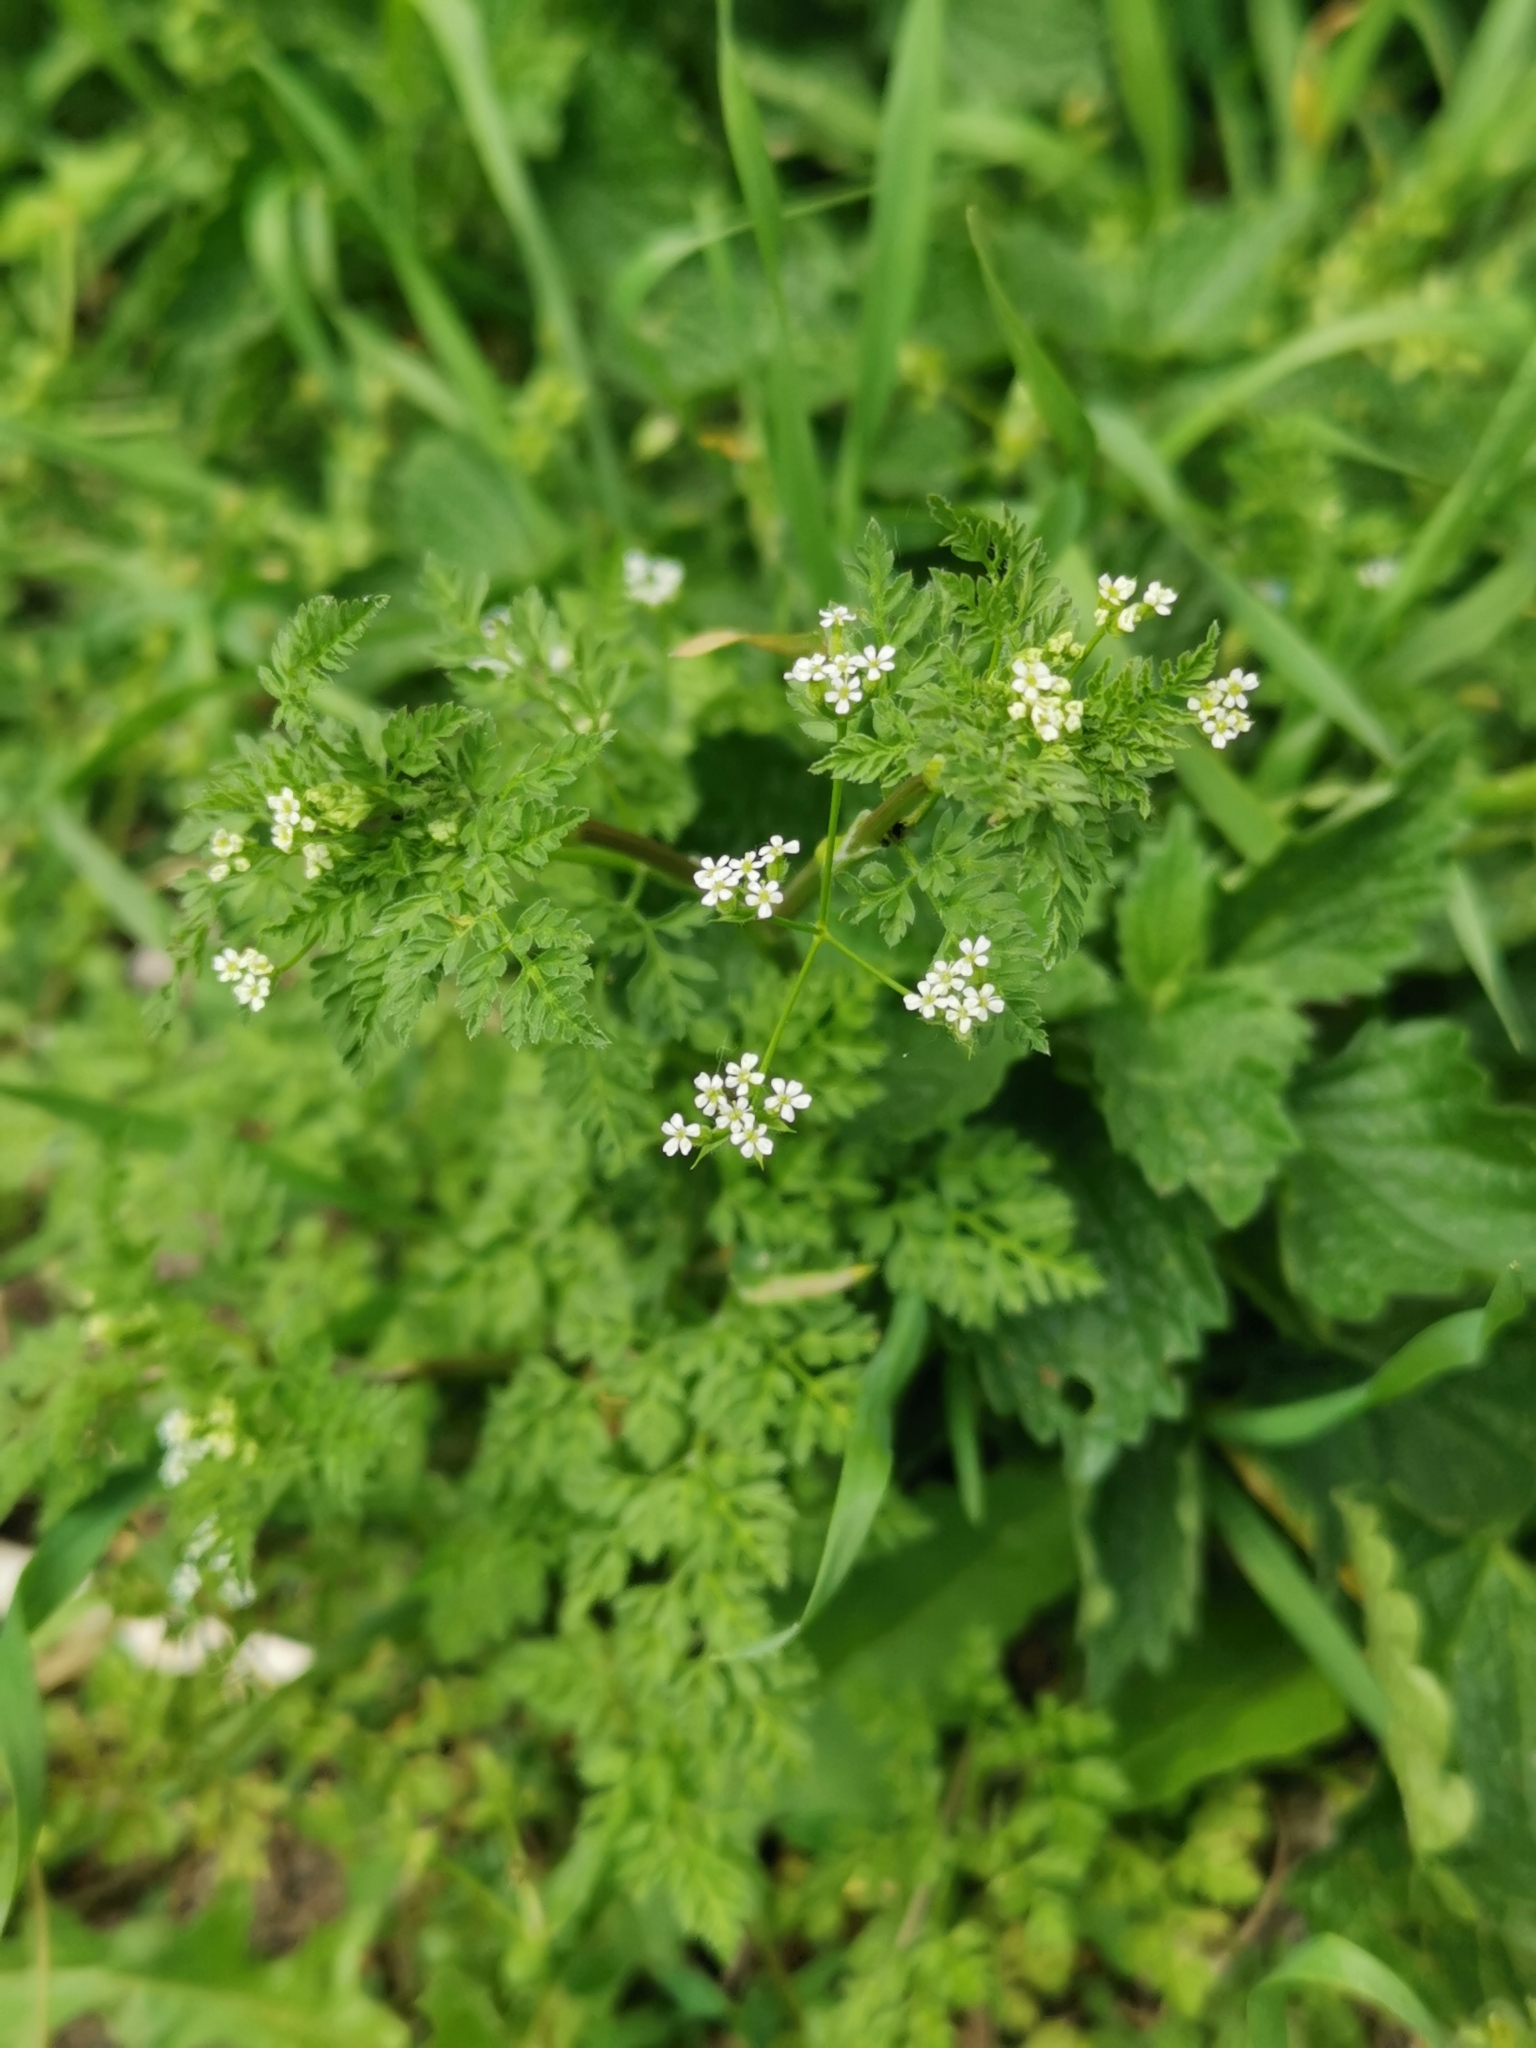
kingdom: Plantae
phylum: Tracheophyta
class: Magnoliopsida
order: Apiales
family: Apiaceae
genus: Anthriscus
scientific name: Anthriscus caucalis
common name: Bur chervil
